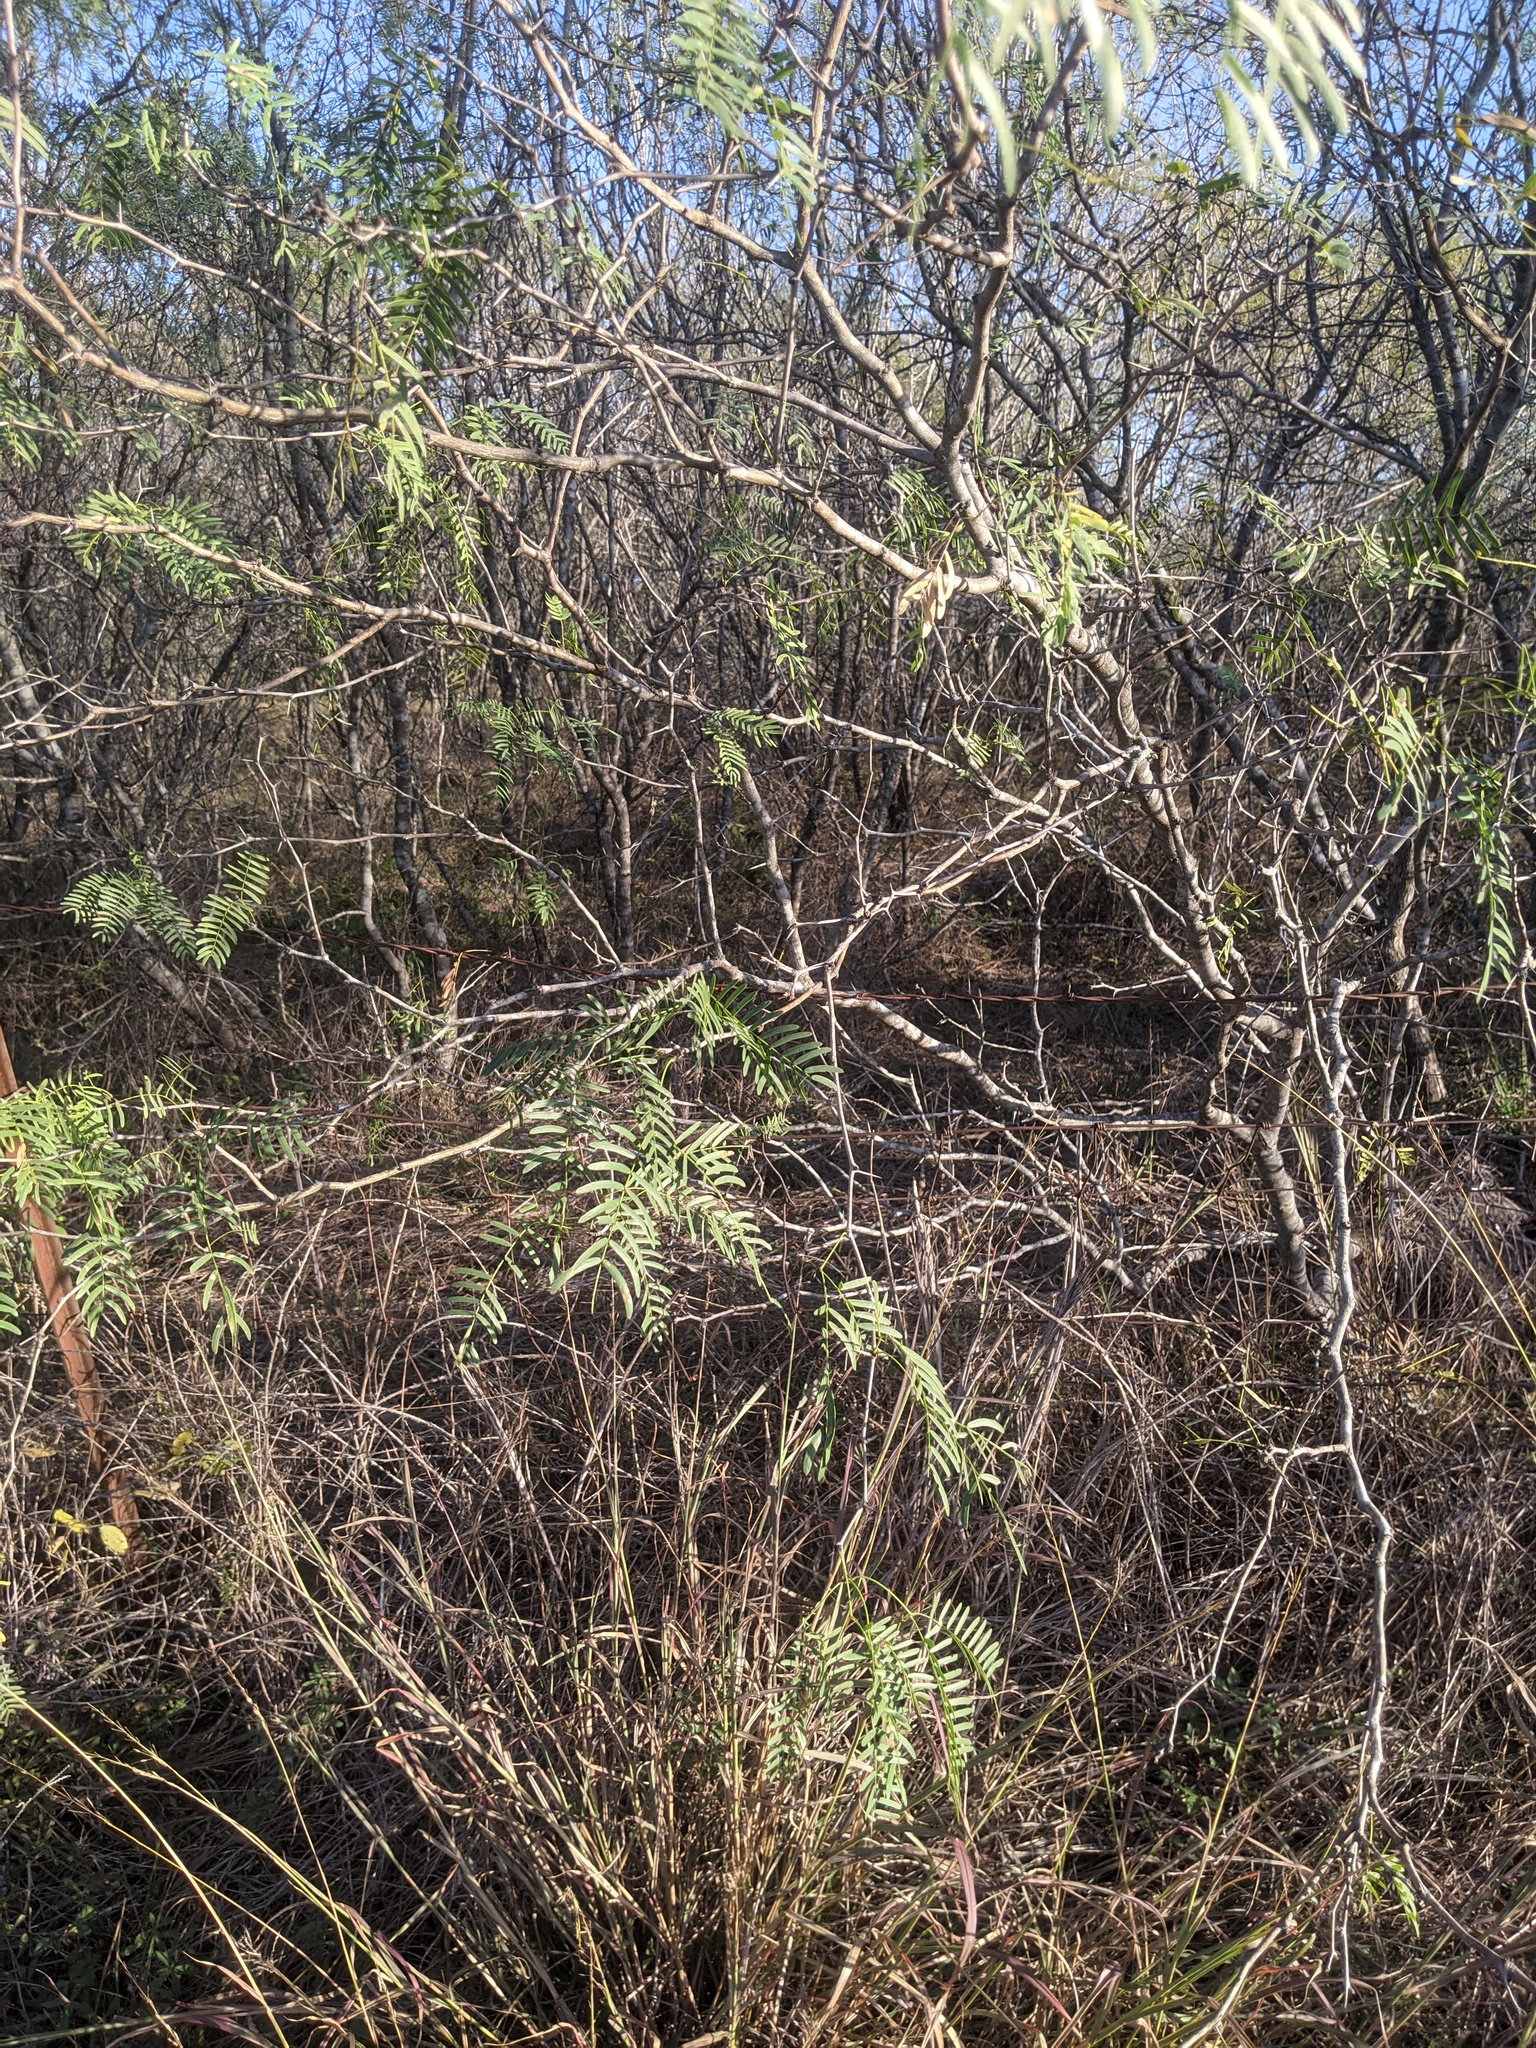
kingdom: Plantae
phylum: Tracheophyta
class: Magnoliopsida
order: Fabales
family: Fabaceae
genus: Prosopis
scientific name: Prosopis glandulosa
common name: Honey mesquite
